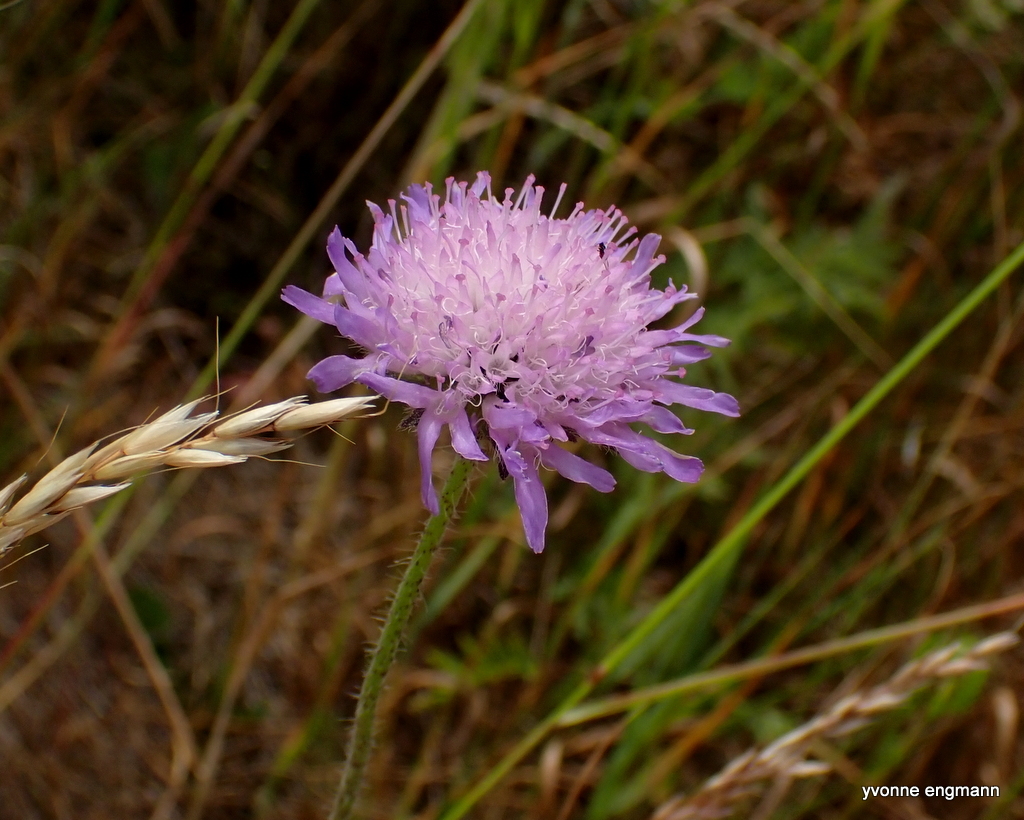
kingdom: Plantae
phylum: Tracheophyta
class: Magnoliopsida
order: Dipsacales
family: Caprifoliaceae
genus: Knautia
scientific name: Knautia arvensis
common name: Field scabiosa
